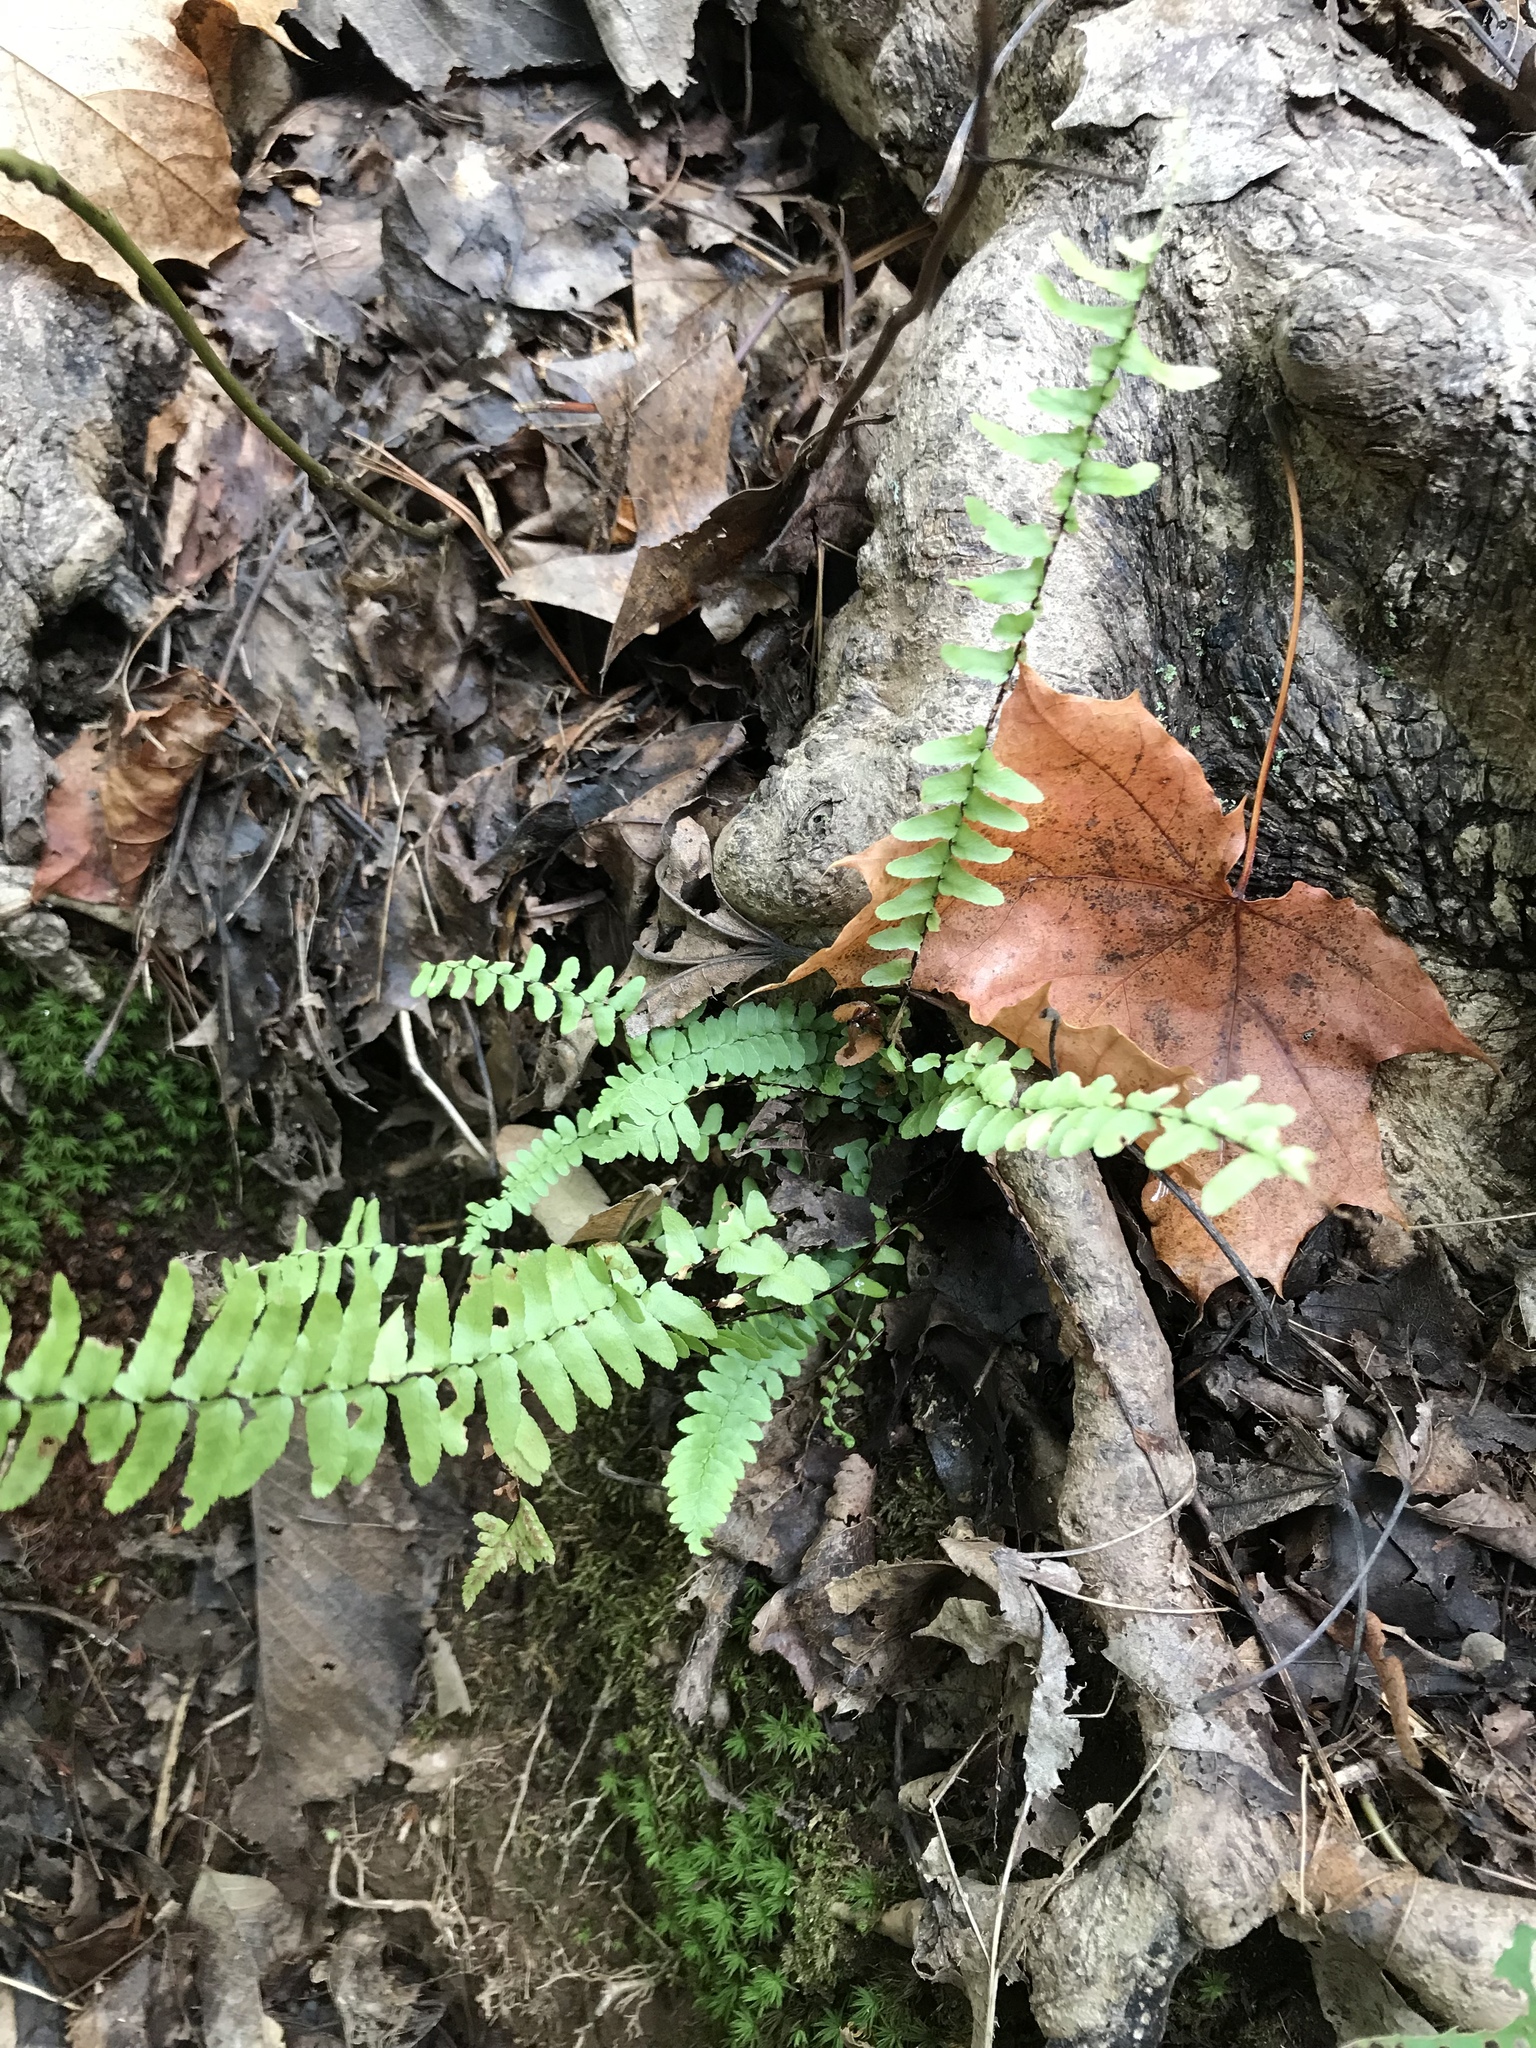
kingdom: Plantae
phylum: Tracheophyta
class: Polypodiopsida
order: Polypodiales
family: Aspleniaceae
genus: Asplenium
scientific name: Asplenium platyneuron
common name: Ebony spleenwort
